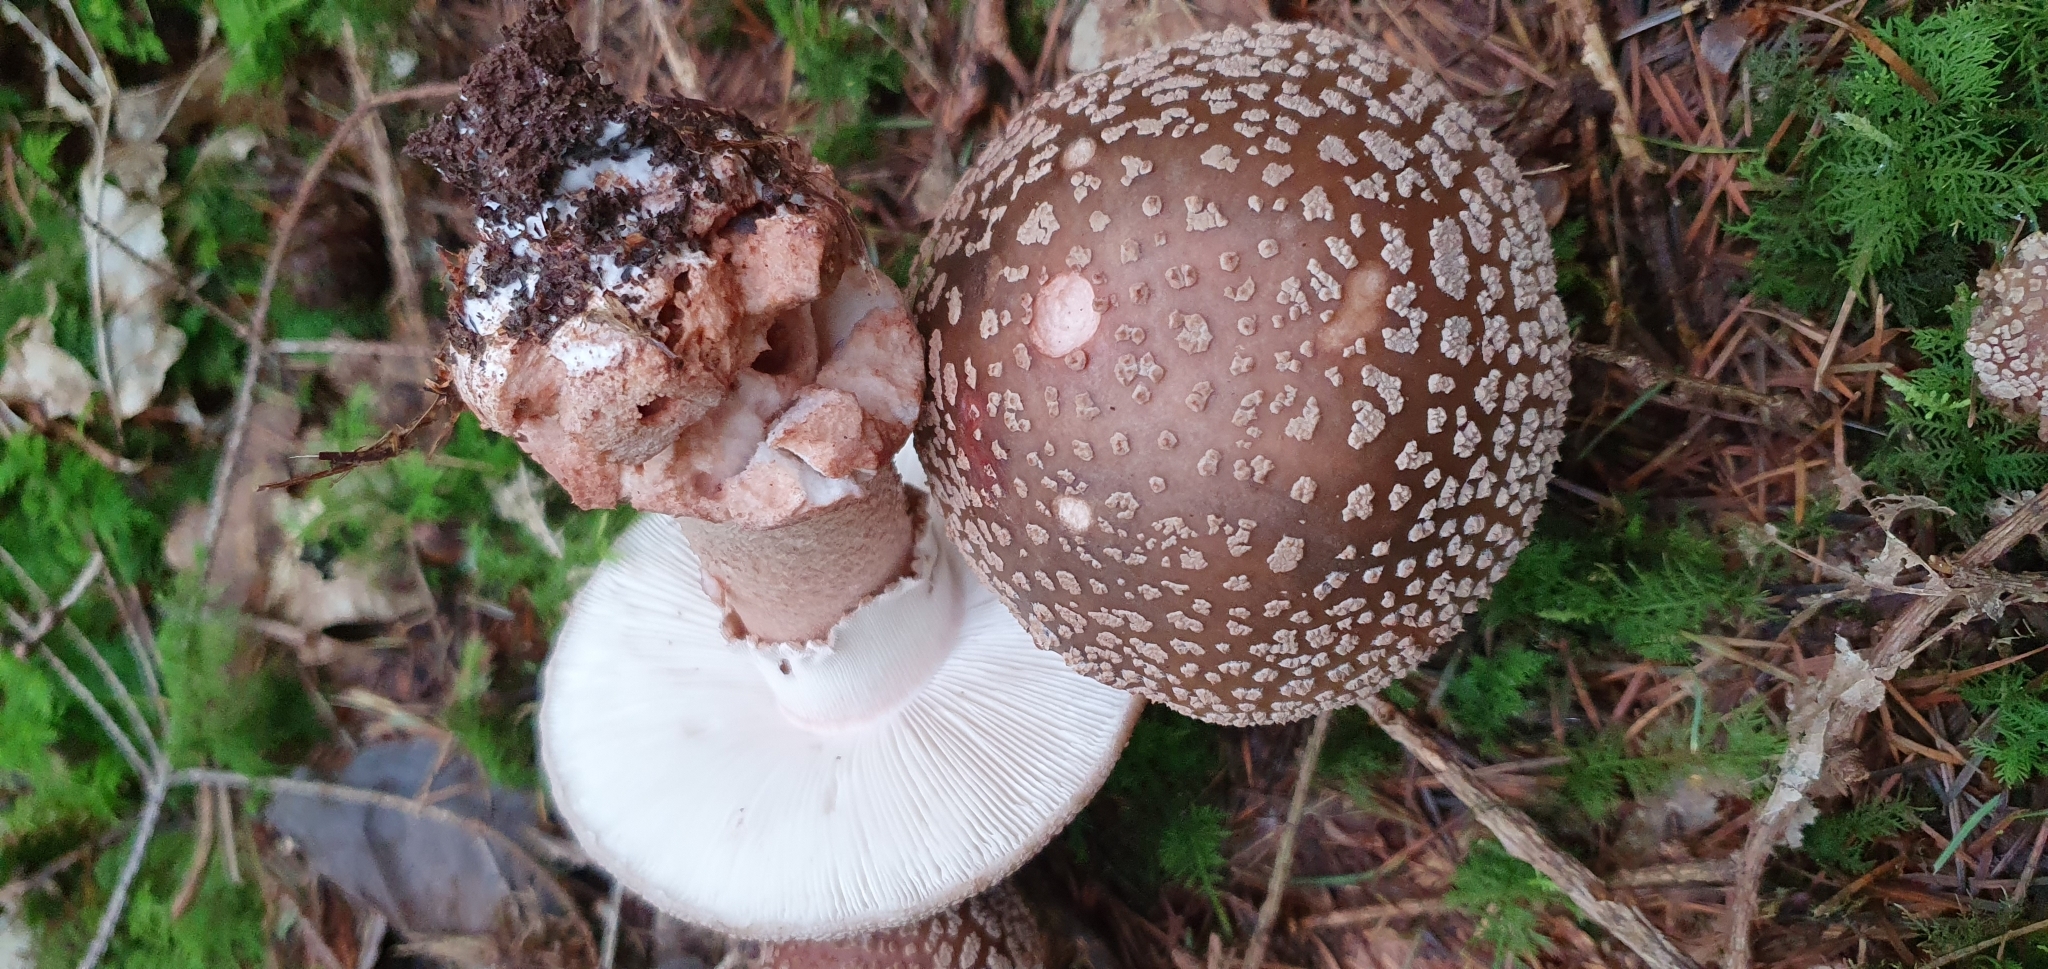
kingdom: Fungi
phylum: Basidiomycota
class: Agaricomycetes
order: Agaricales
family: Amanitaceae
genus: Amanita
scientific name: Amanita rubescens
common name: Blusher
